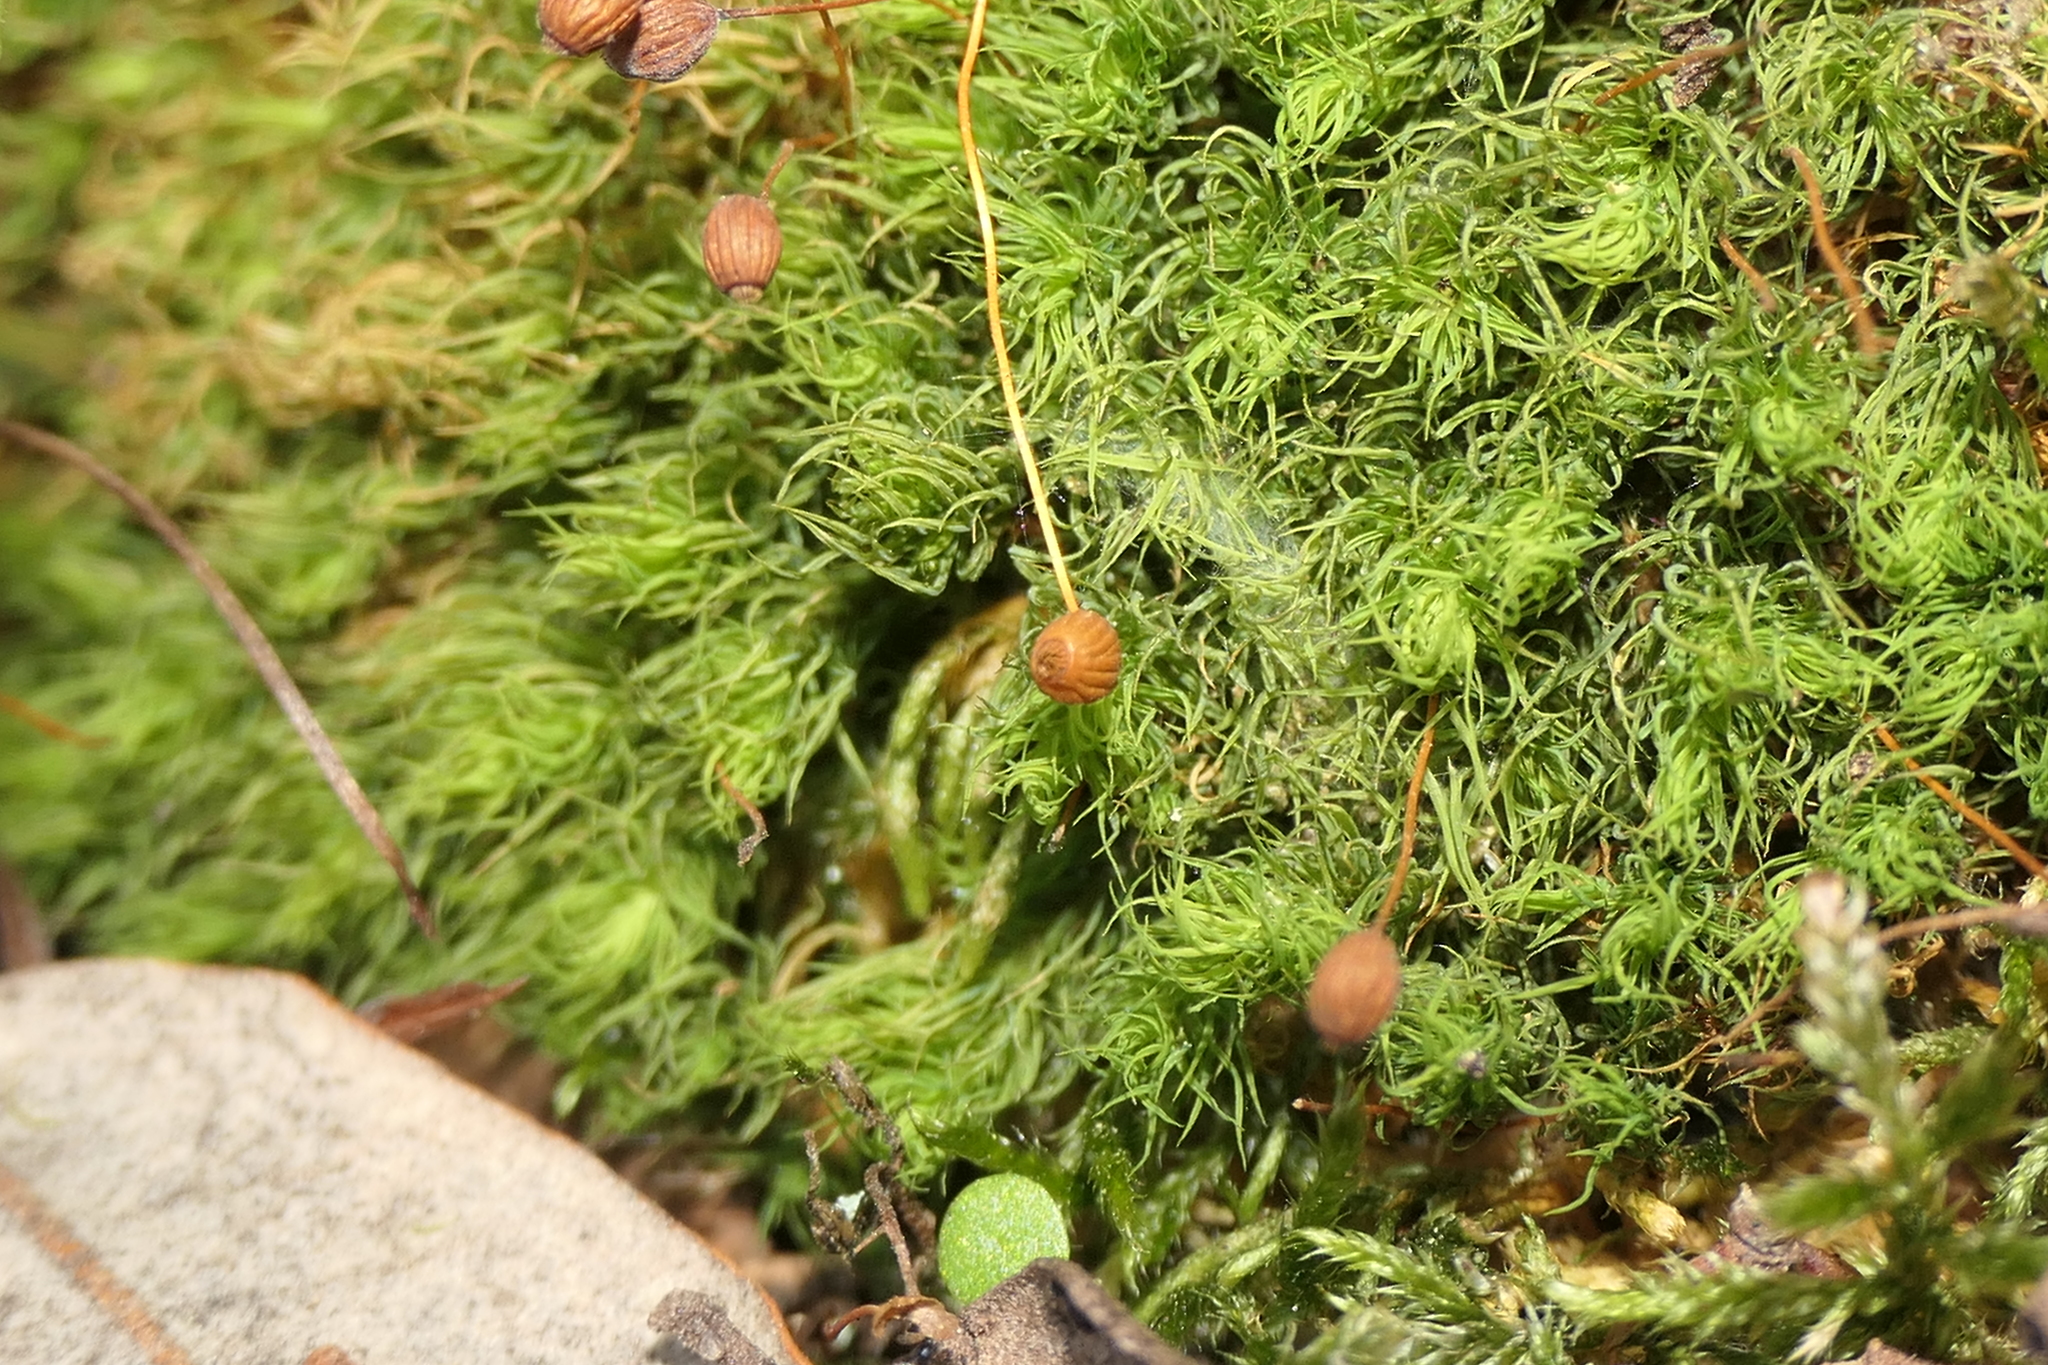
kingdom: Plantae
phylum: Bryophyta
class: Bryopsida
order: Bartramiales
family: Bartramiaceae
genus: Bartramia
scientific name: Bartramia ithyphylla
